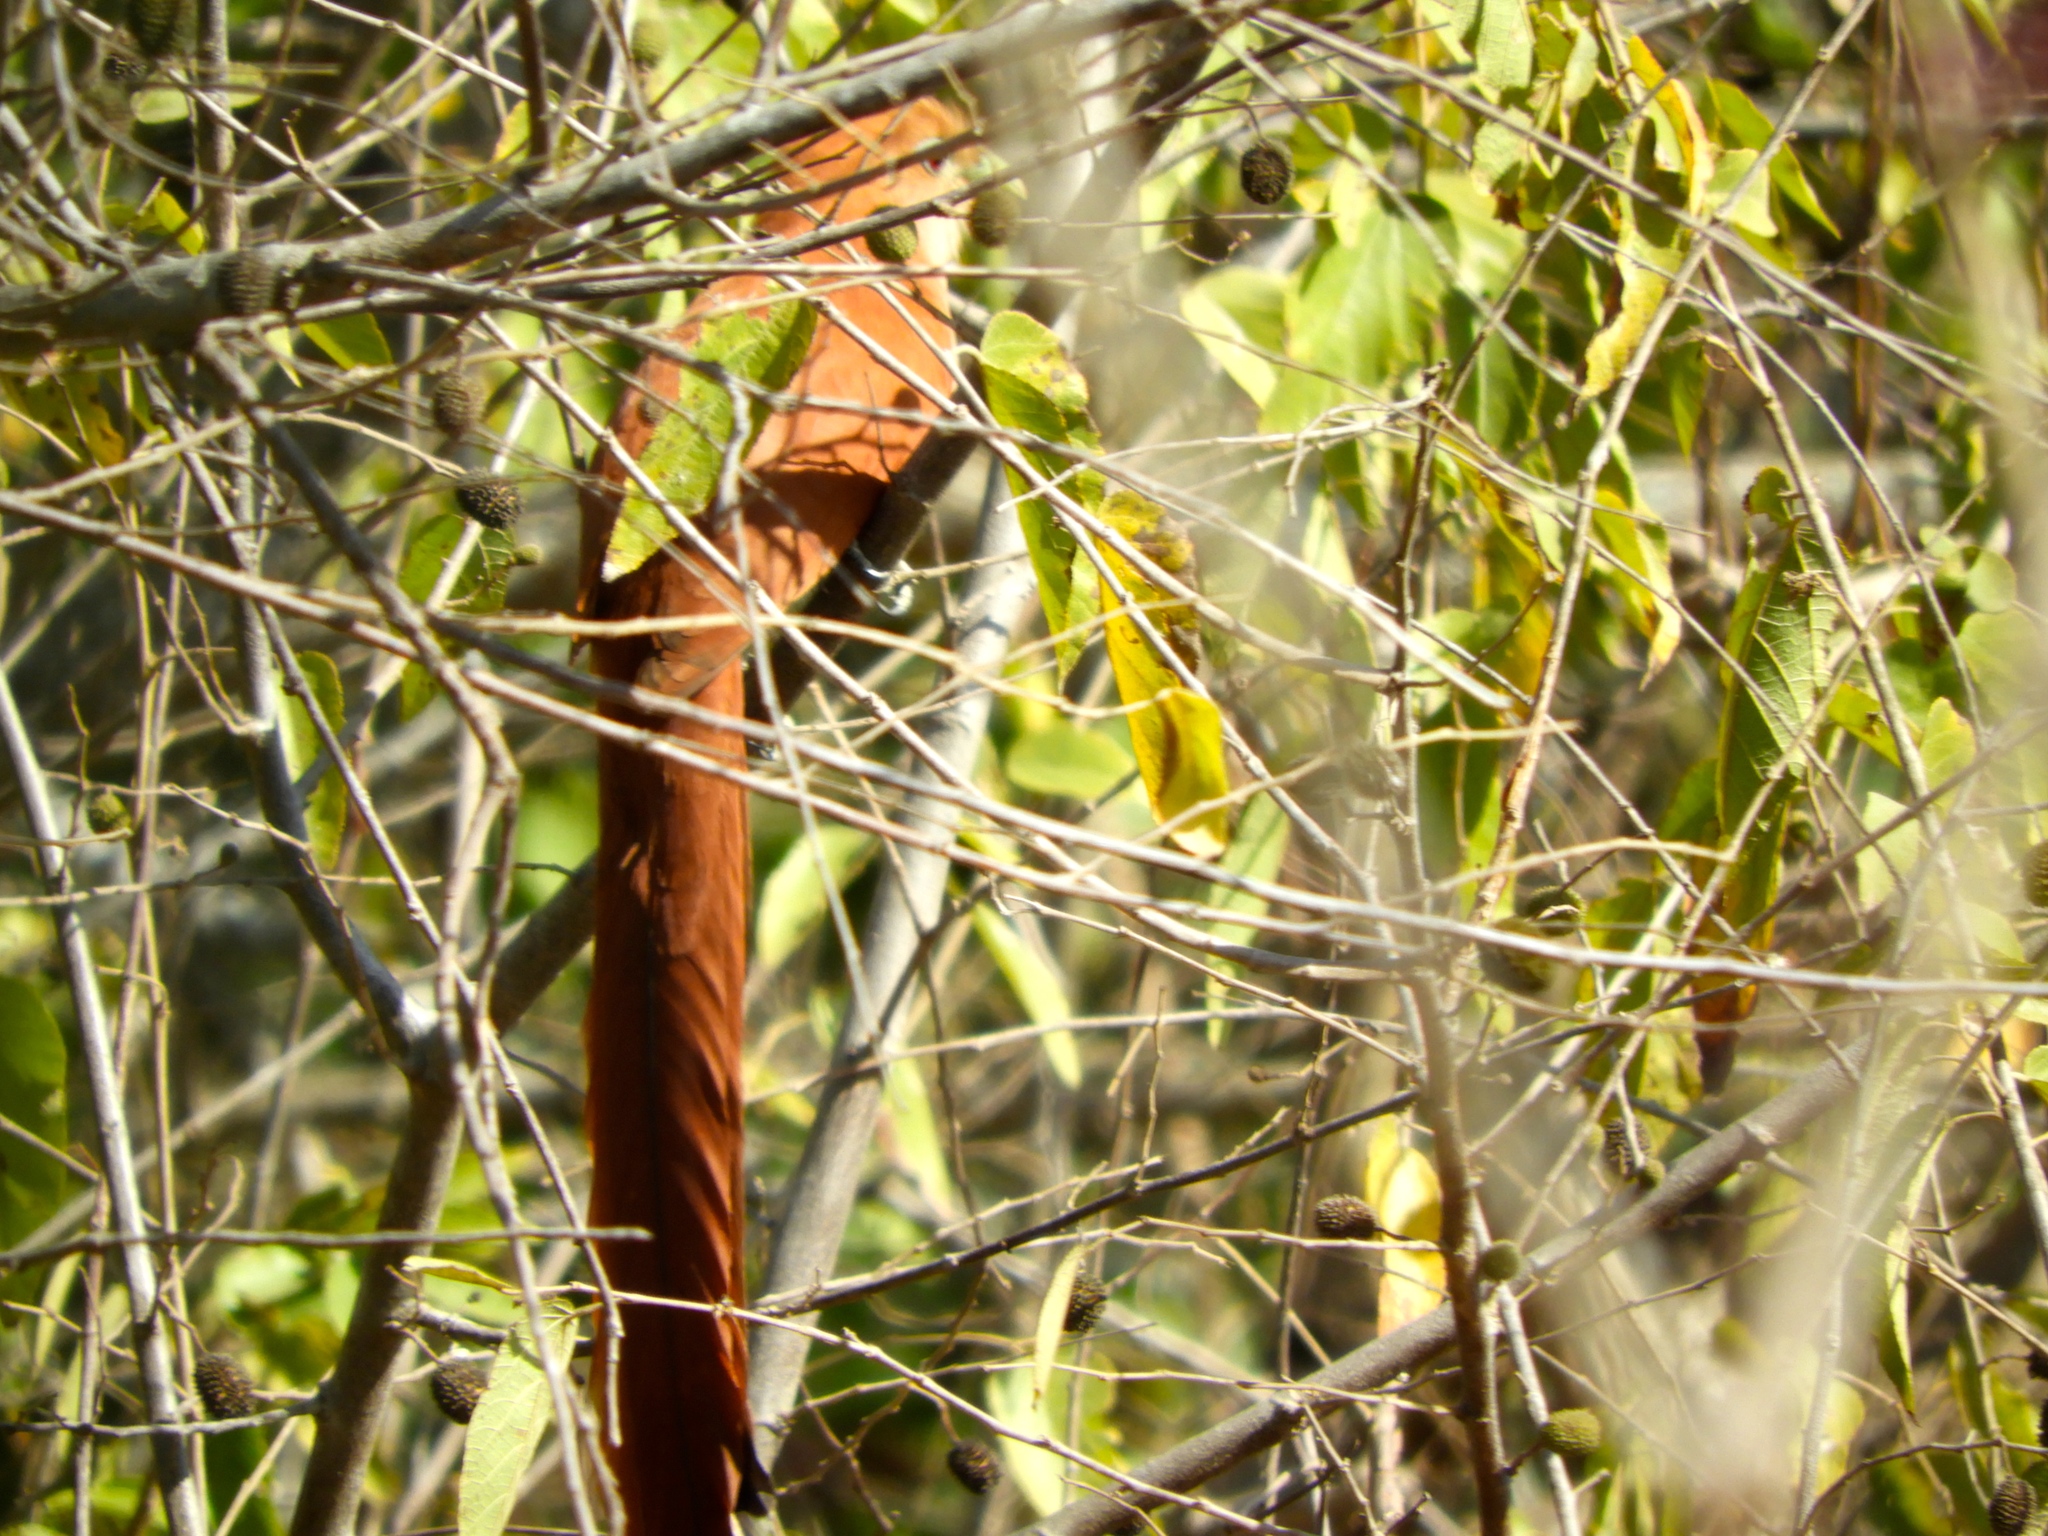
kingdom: Animalia
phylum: Chordata
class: Aves
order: Cuculiformes
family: Cuculidae
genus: Piaya
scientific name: Piaya cayana
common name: Squirrel cuckoo
